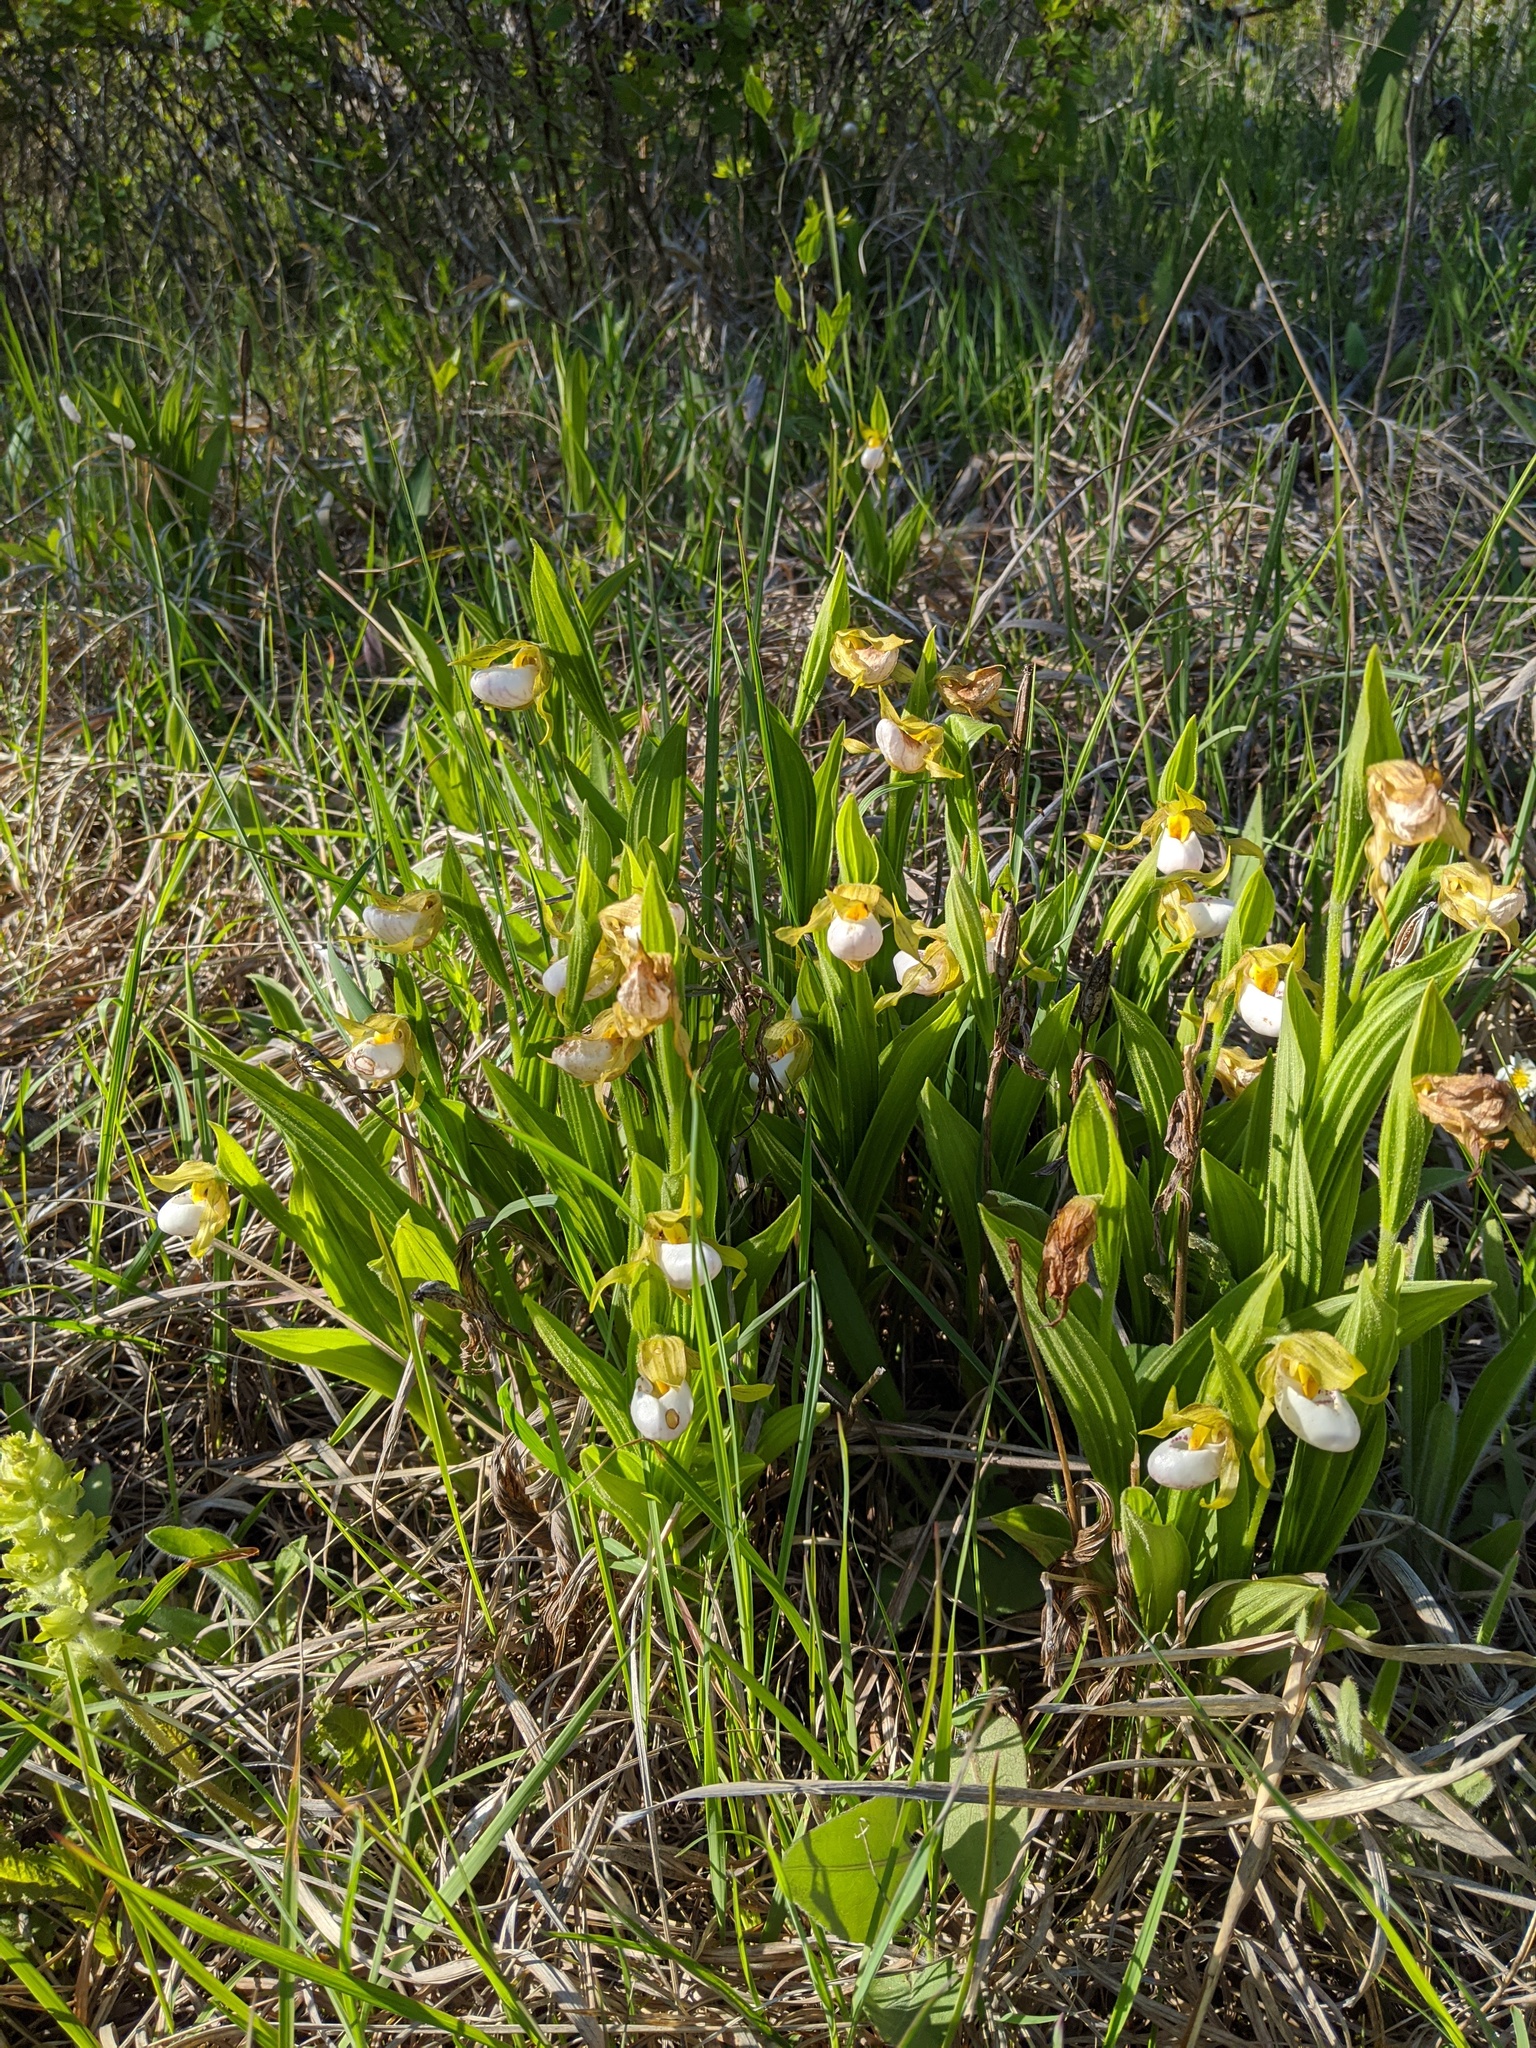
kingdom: Plantae
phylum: Tracheophyta
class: Liliopsida
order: Asparagales
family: Orchidaceae
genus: Cypripedium
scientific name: Cypripedium candidum
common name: White lady's-slipper
